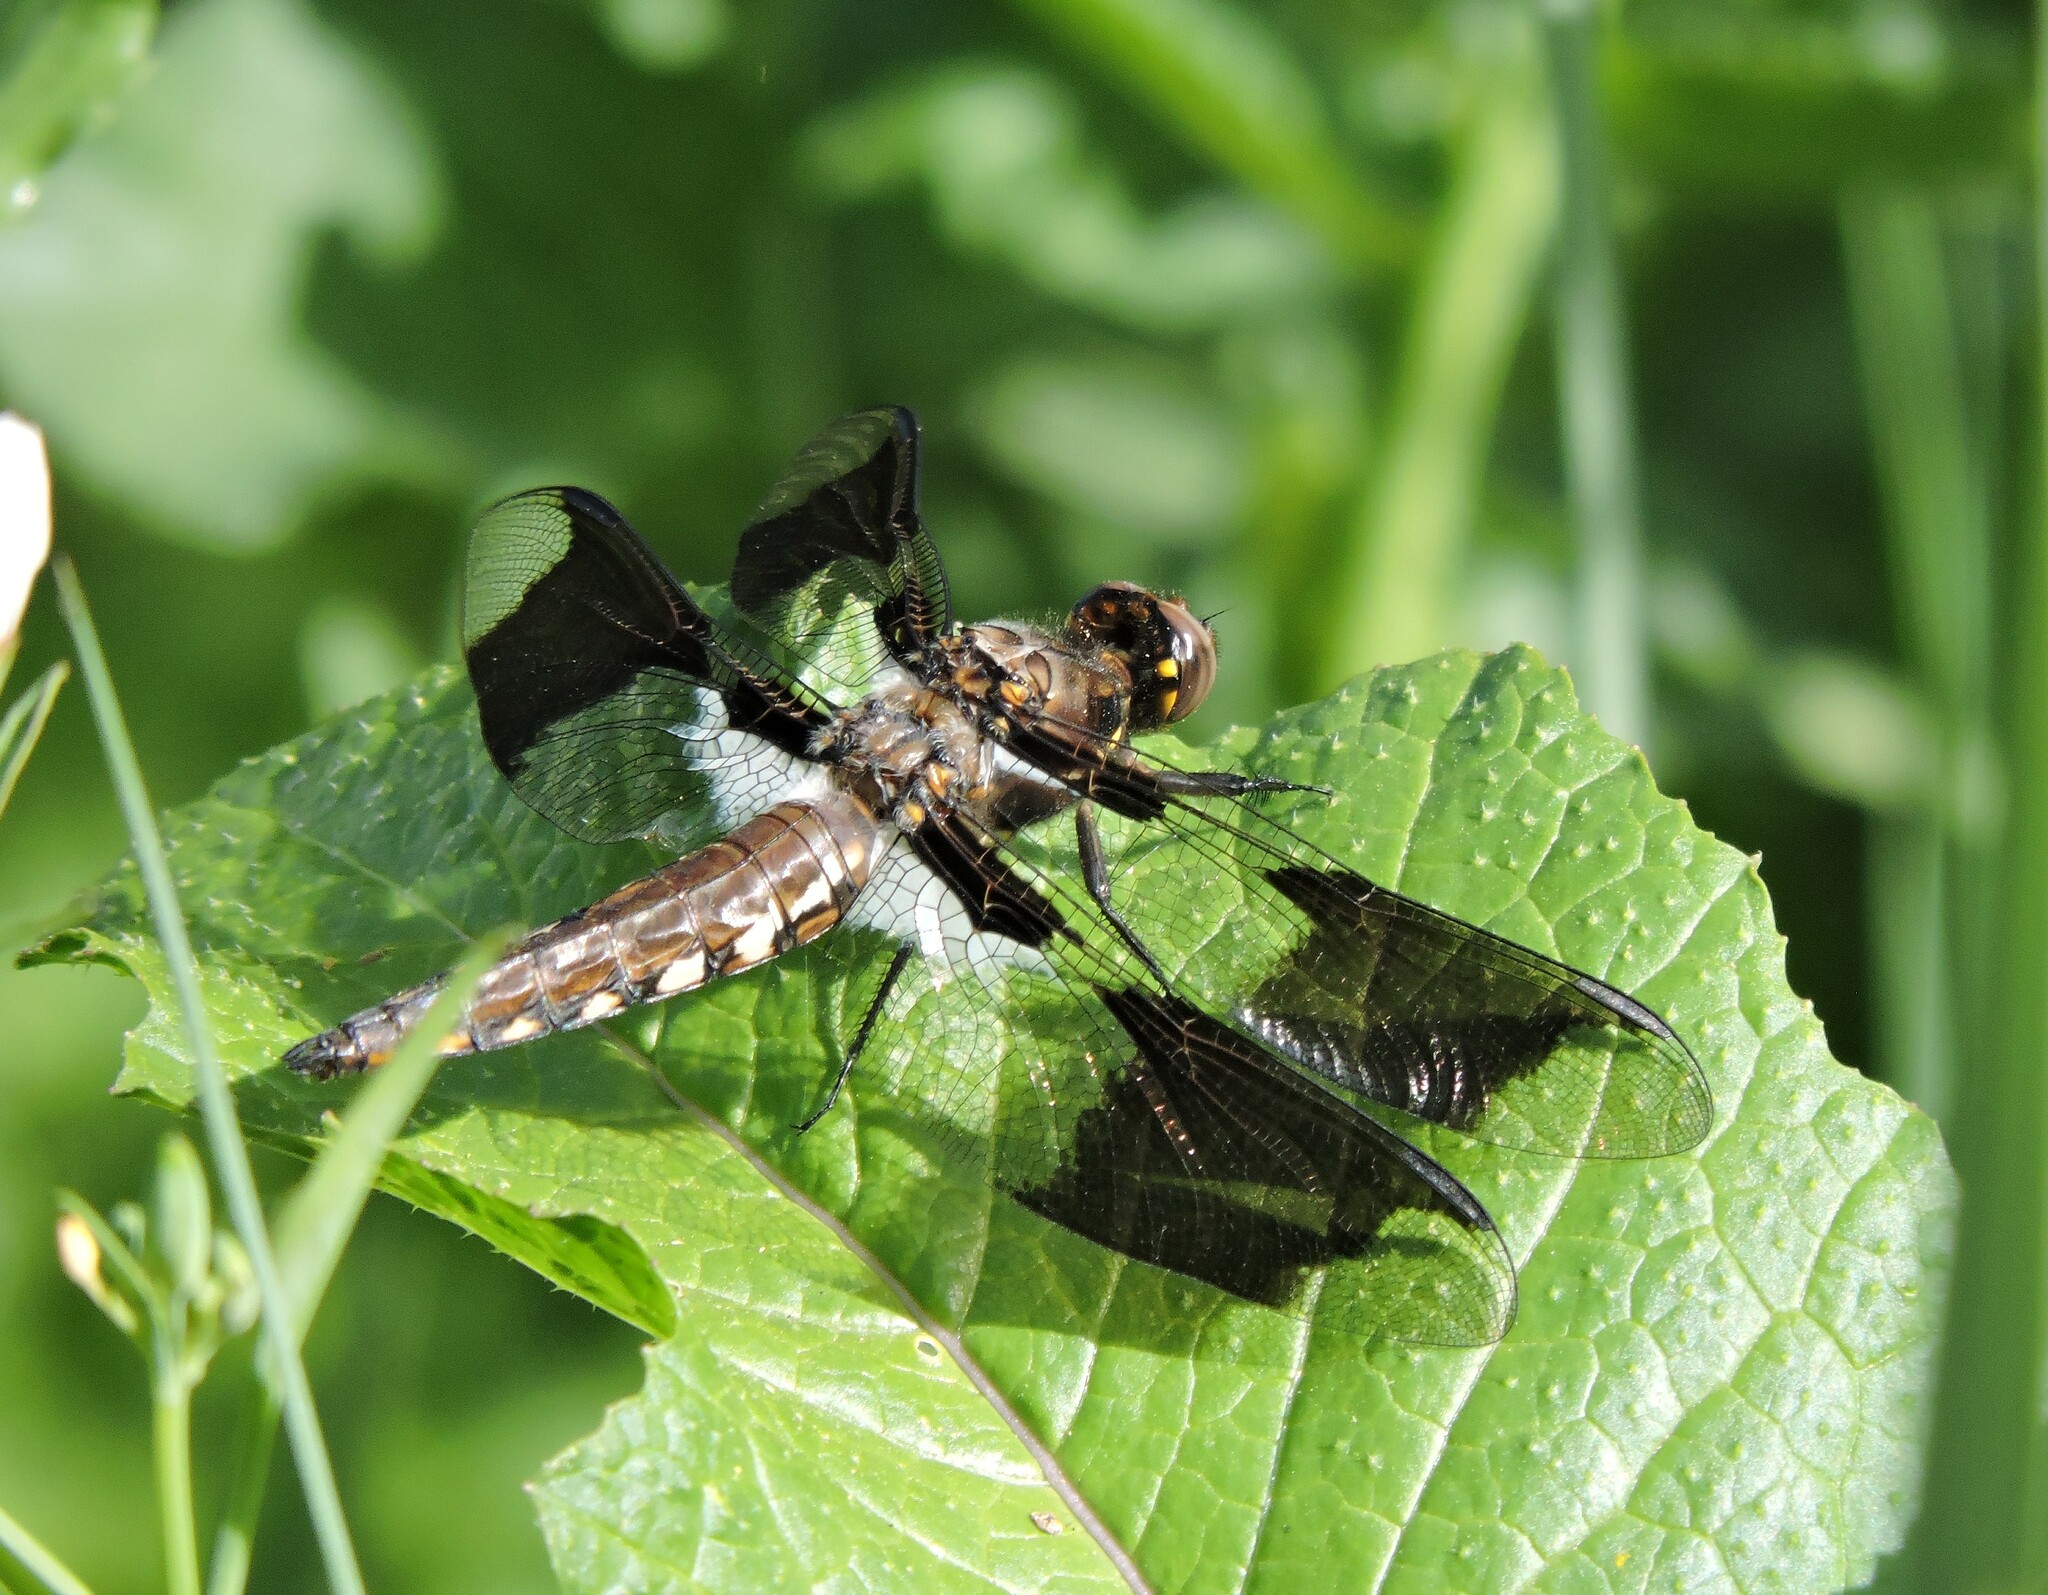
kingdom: Animalia
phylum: Arthropoda
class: Insecta
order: Odonata
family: Libellulidae
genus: Plathemis
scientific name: Plathemis lydia
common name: Common whitetail
